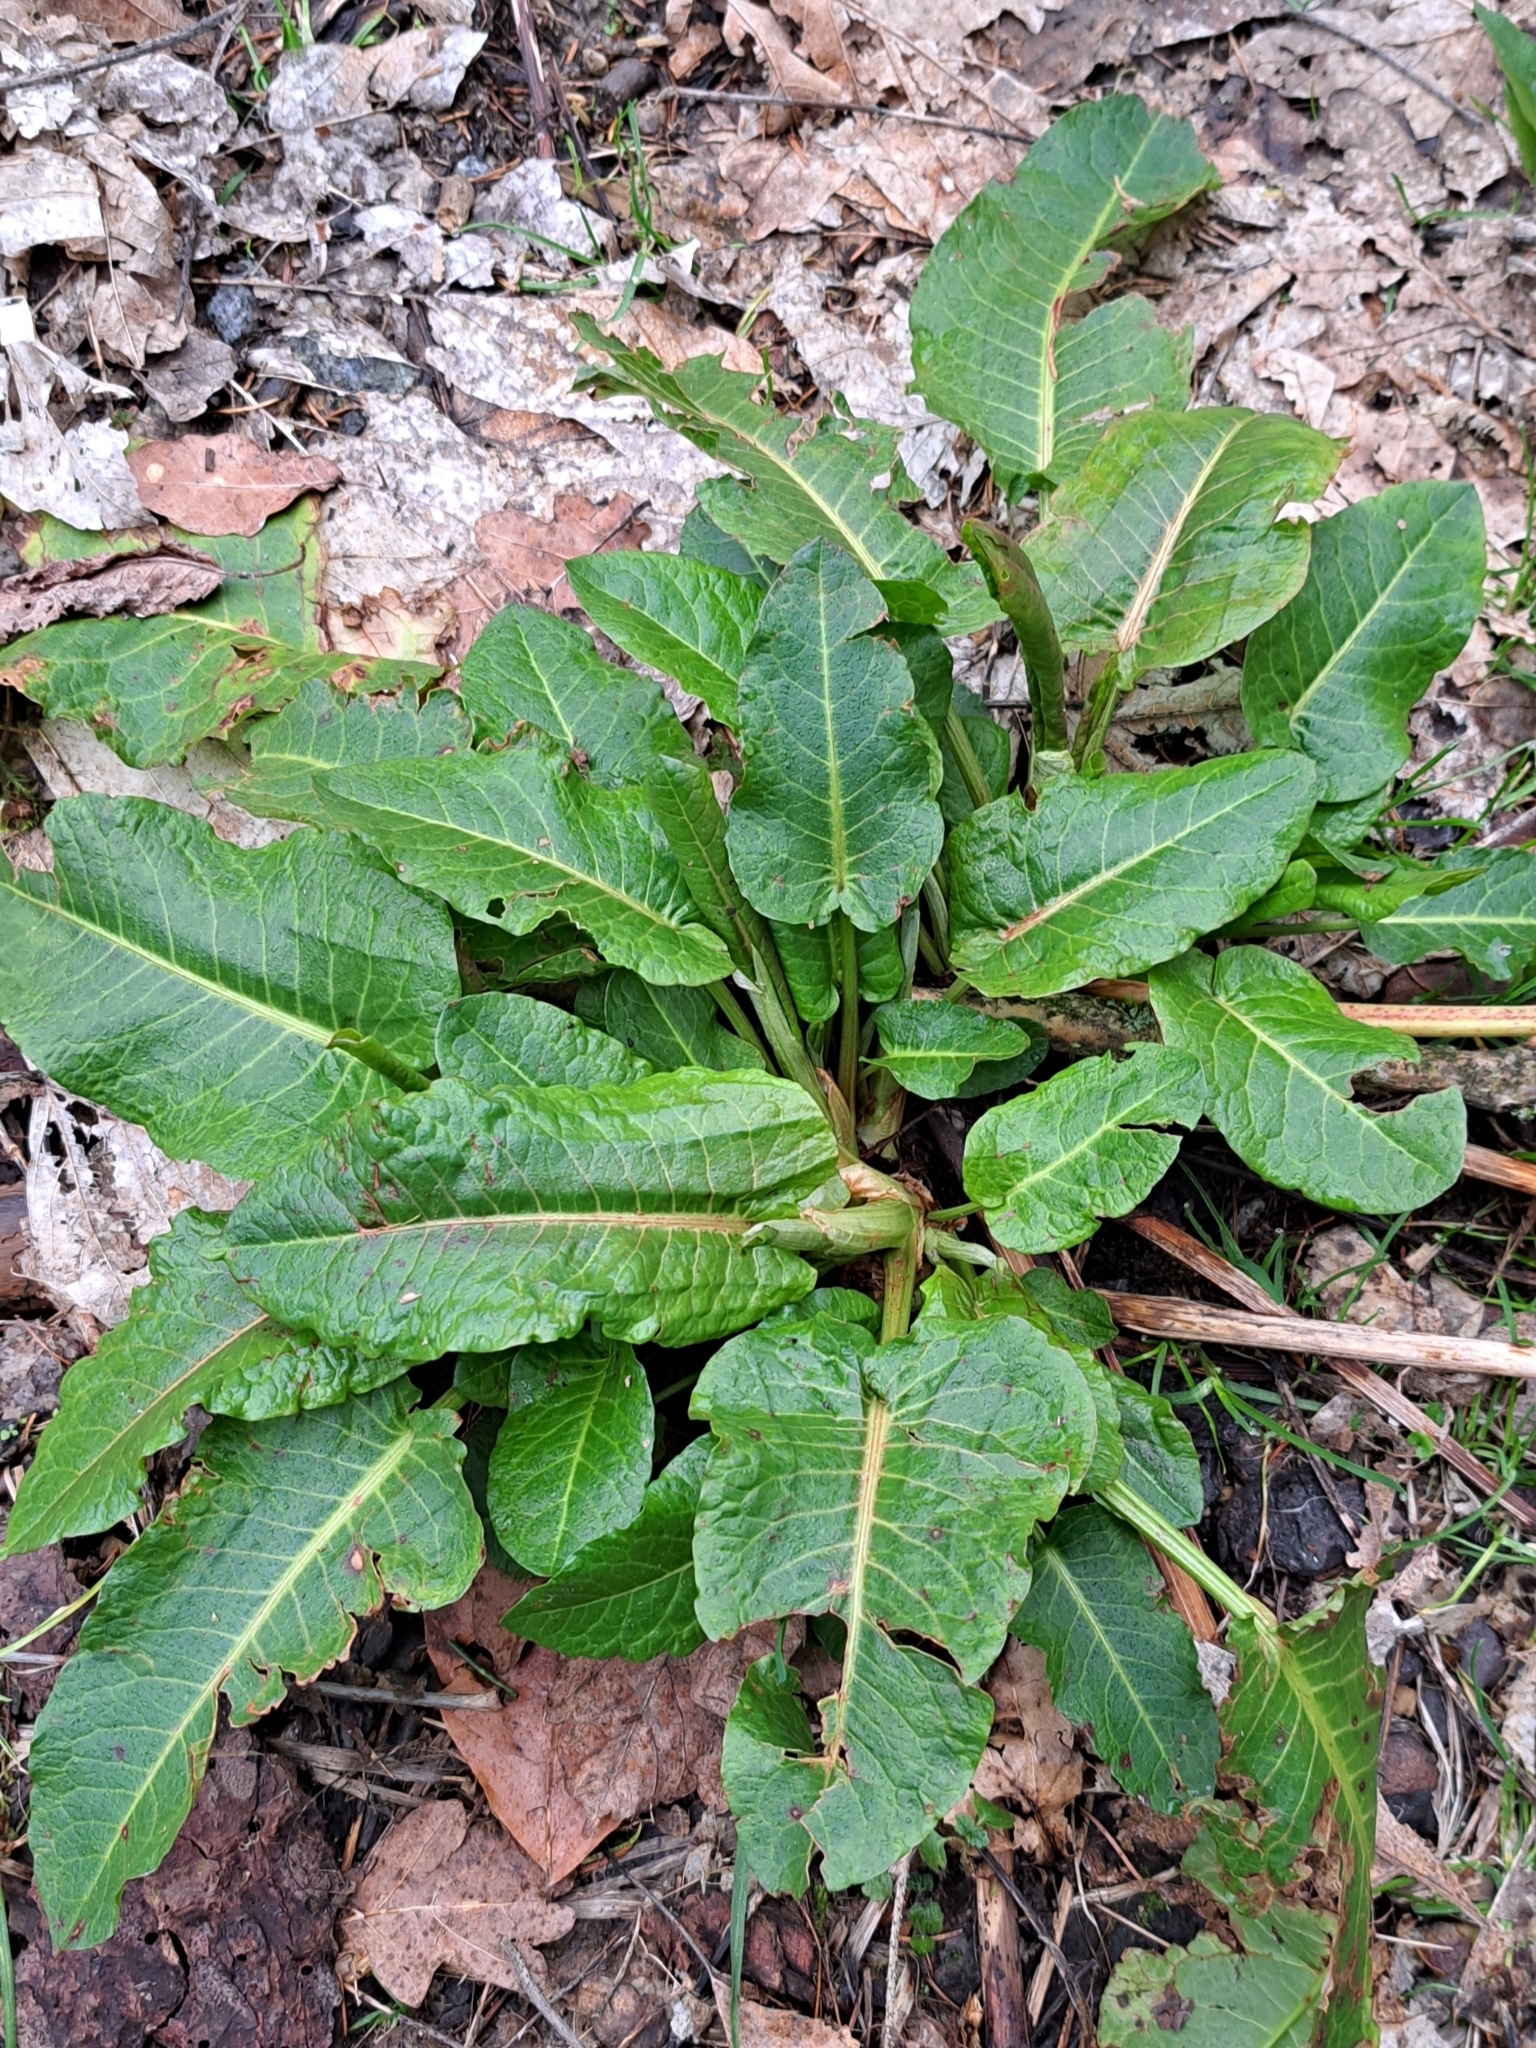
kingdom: Plantae
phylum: Tracheophyta
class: Magnoliopsida
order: Caryophyllales
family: Polygonaceae
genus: Rumex
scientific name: Rumex obtusifolius
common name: Bitter dock
